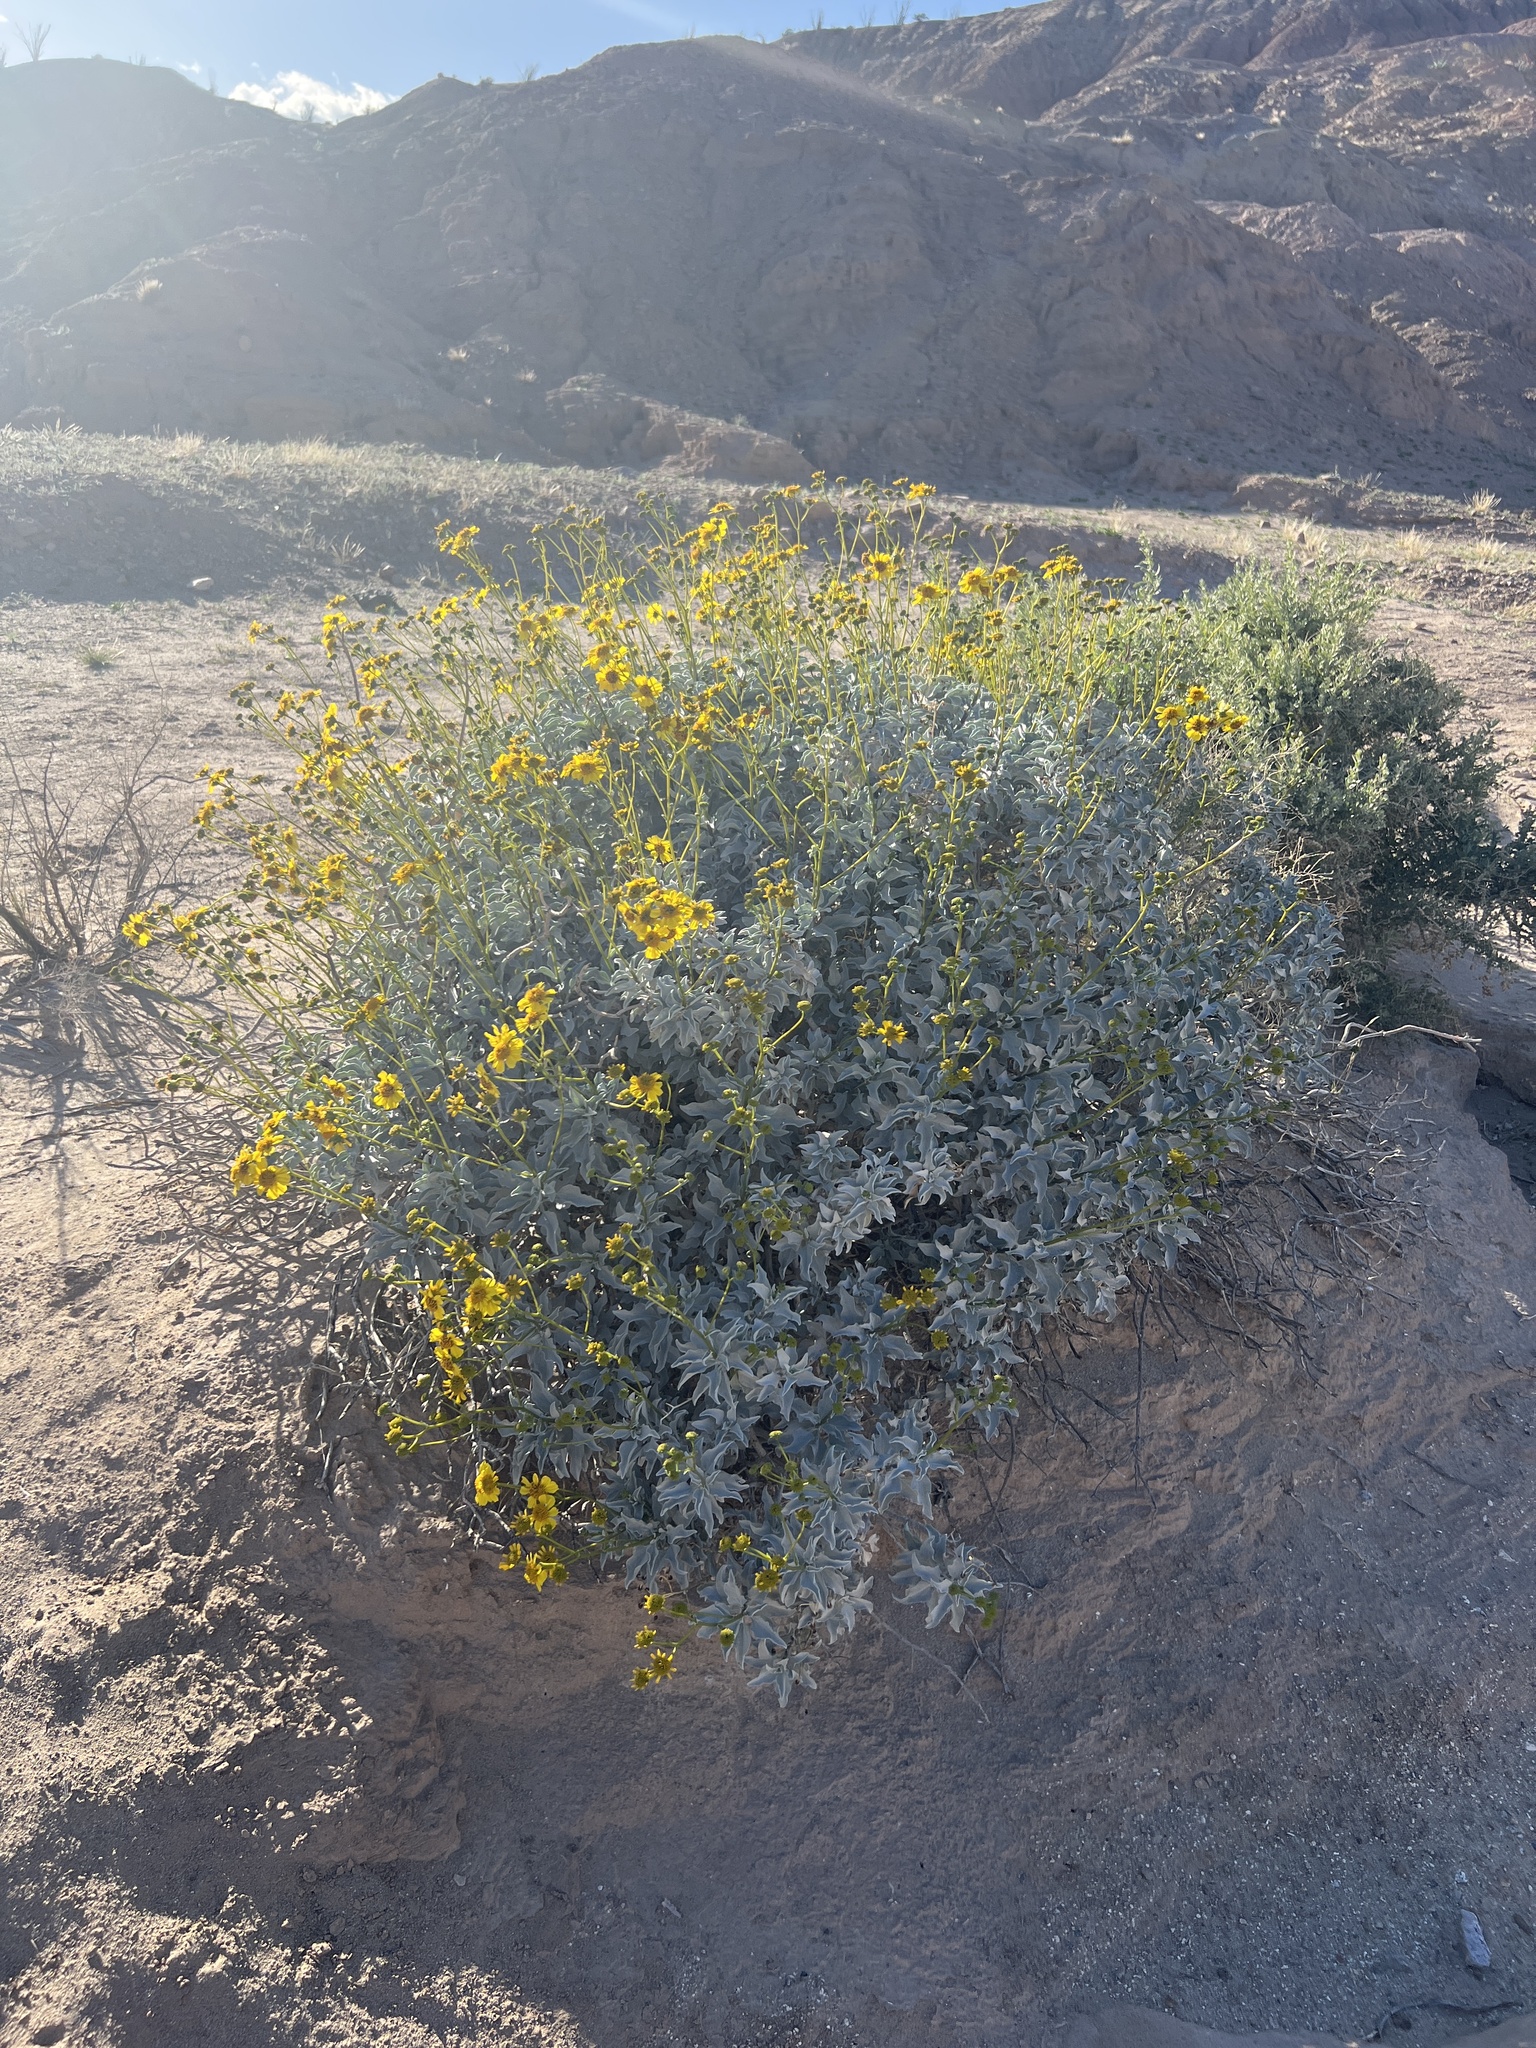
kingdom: Plantae
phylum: Tracheophyta
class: Magnoliopsida
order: Asterales
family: Asteraceae
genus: Encelia
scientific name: Encelia farinosa
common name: Brittlebush
